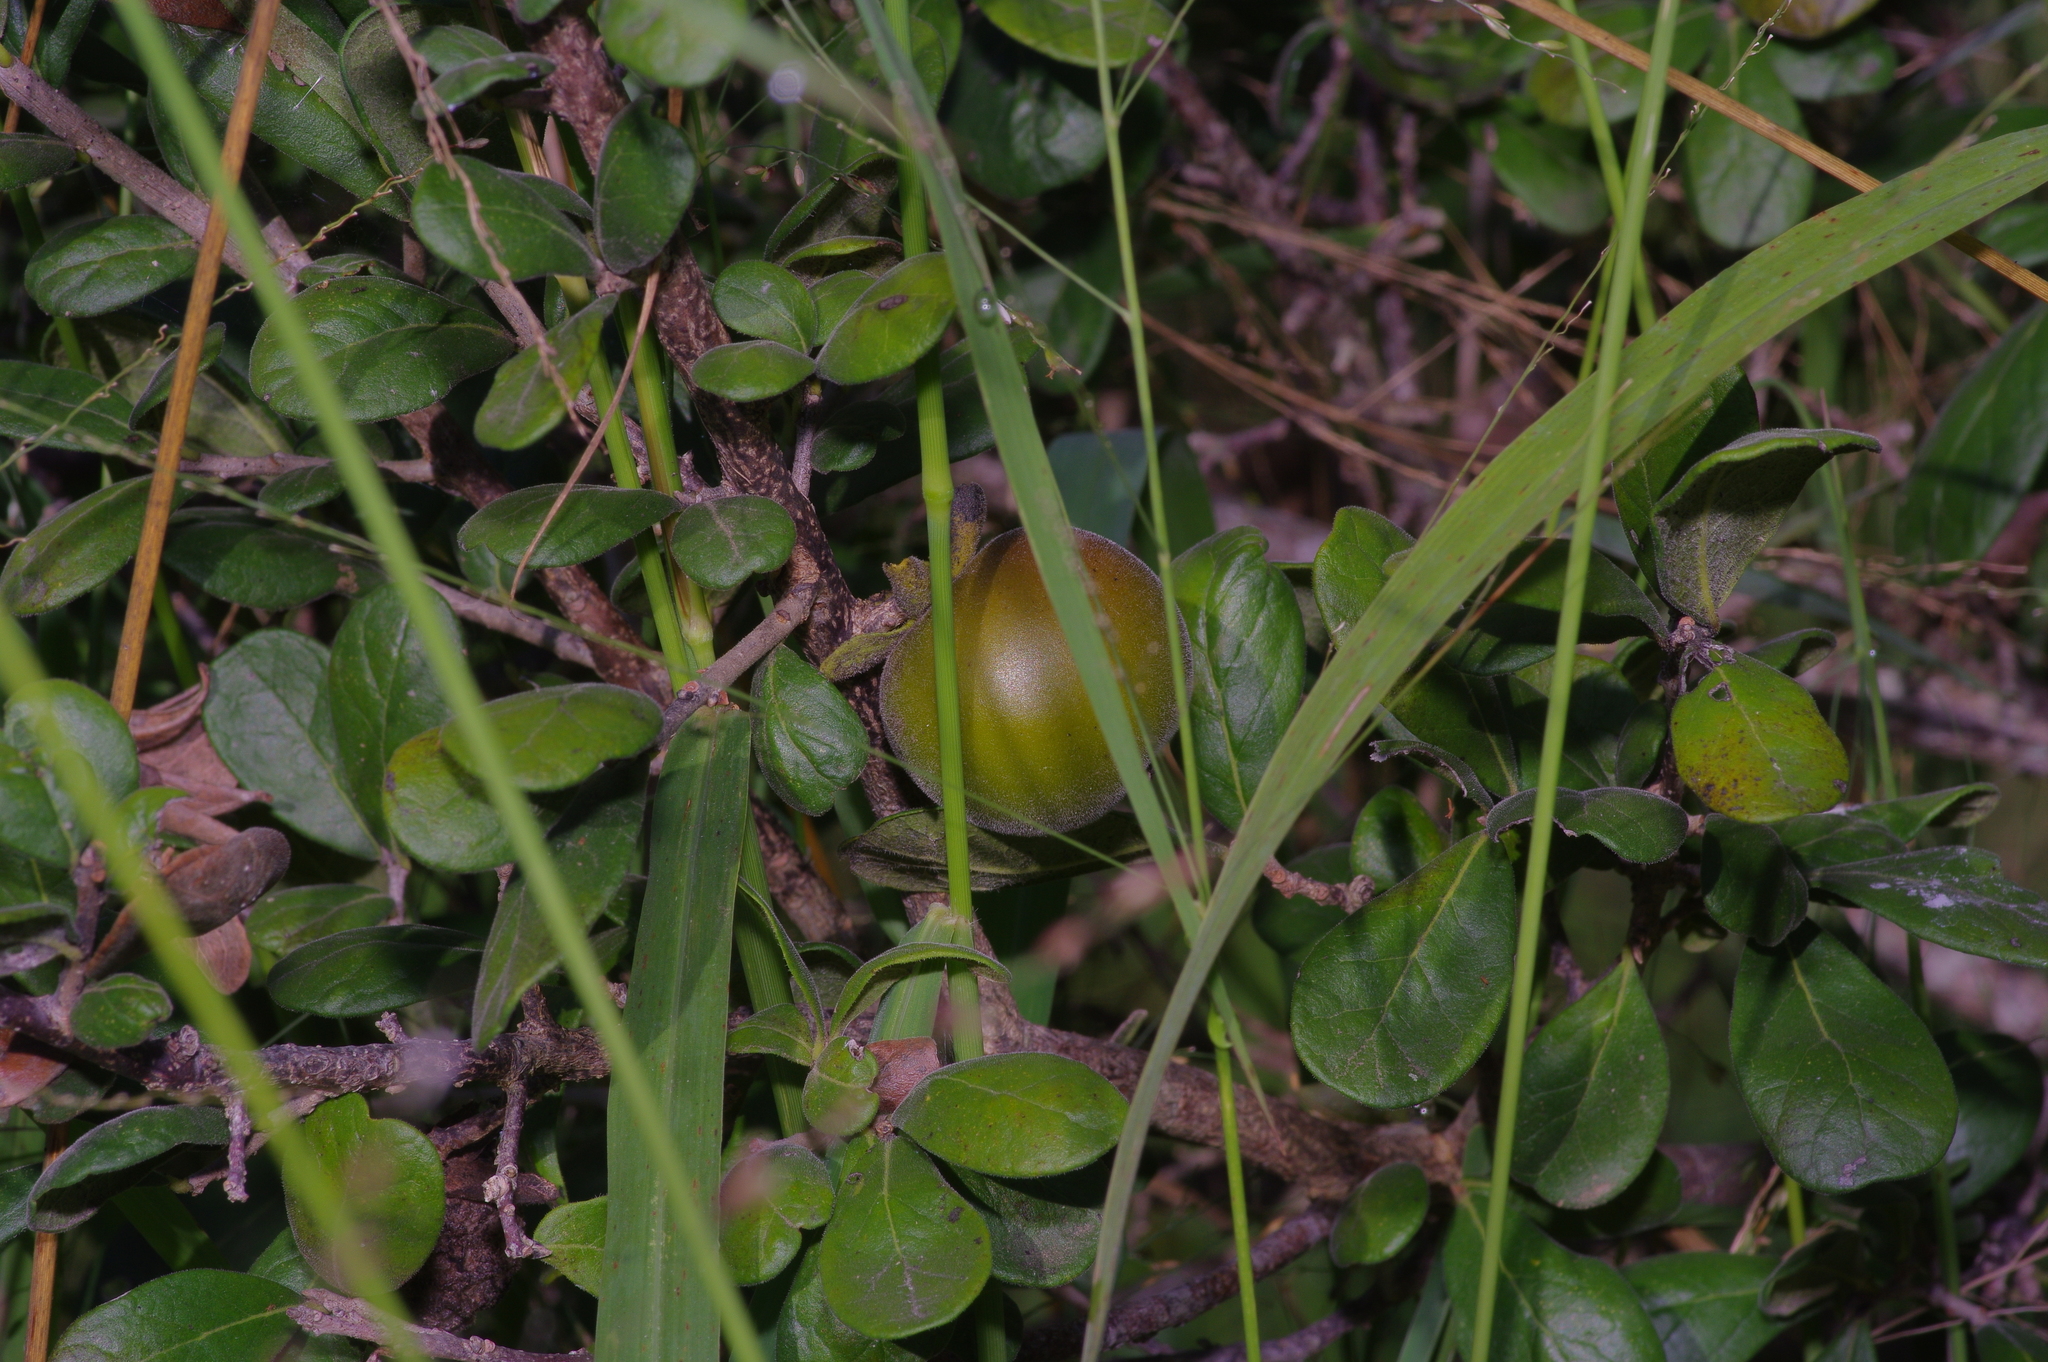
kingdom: Plantae
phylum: Tracheophyta
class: Magnoliopsida
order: Ericales
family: Ebenaceae
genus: Diospyros
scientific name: Diospyros texana
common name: Texas persimmon
